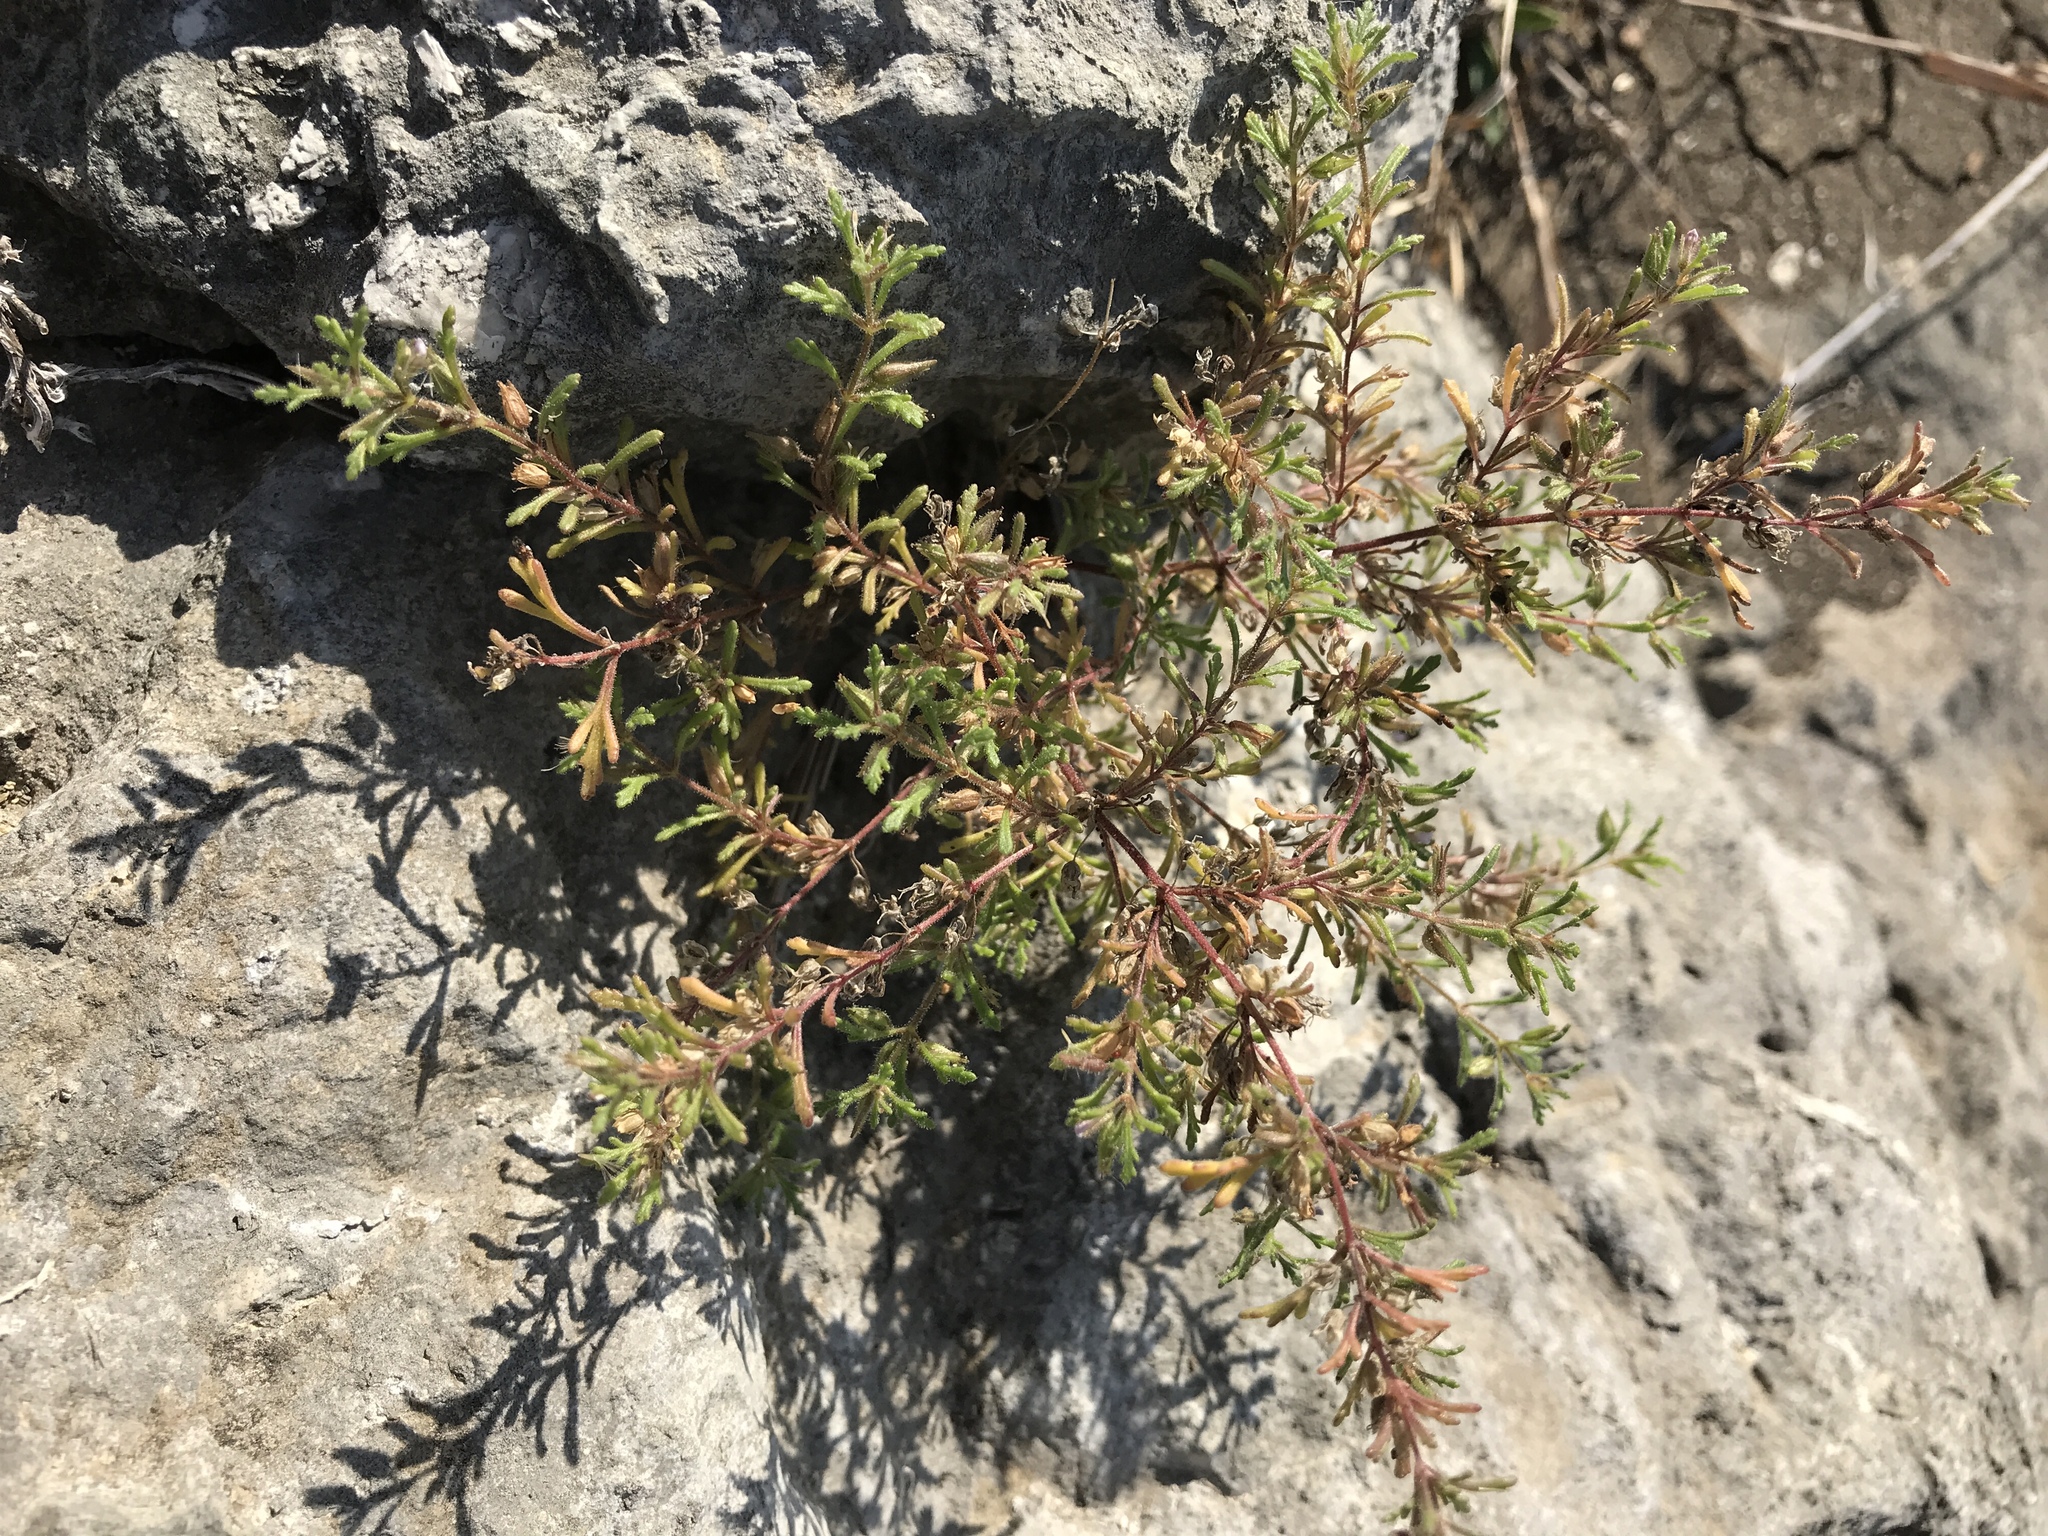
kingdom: Plantae
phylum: Tracheophyta
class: Magnoliopsida
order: Lamiales
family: Plantaginaceae
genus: Leucospora
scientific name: Leucospora multifida
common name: Narrow-leaf paleseed
